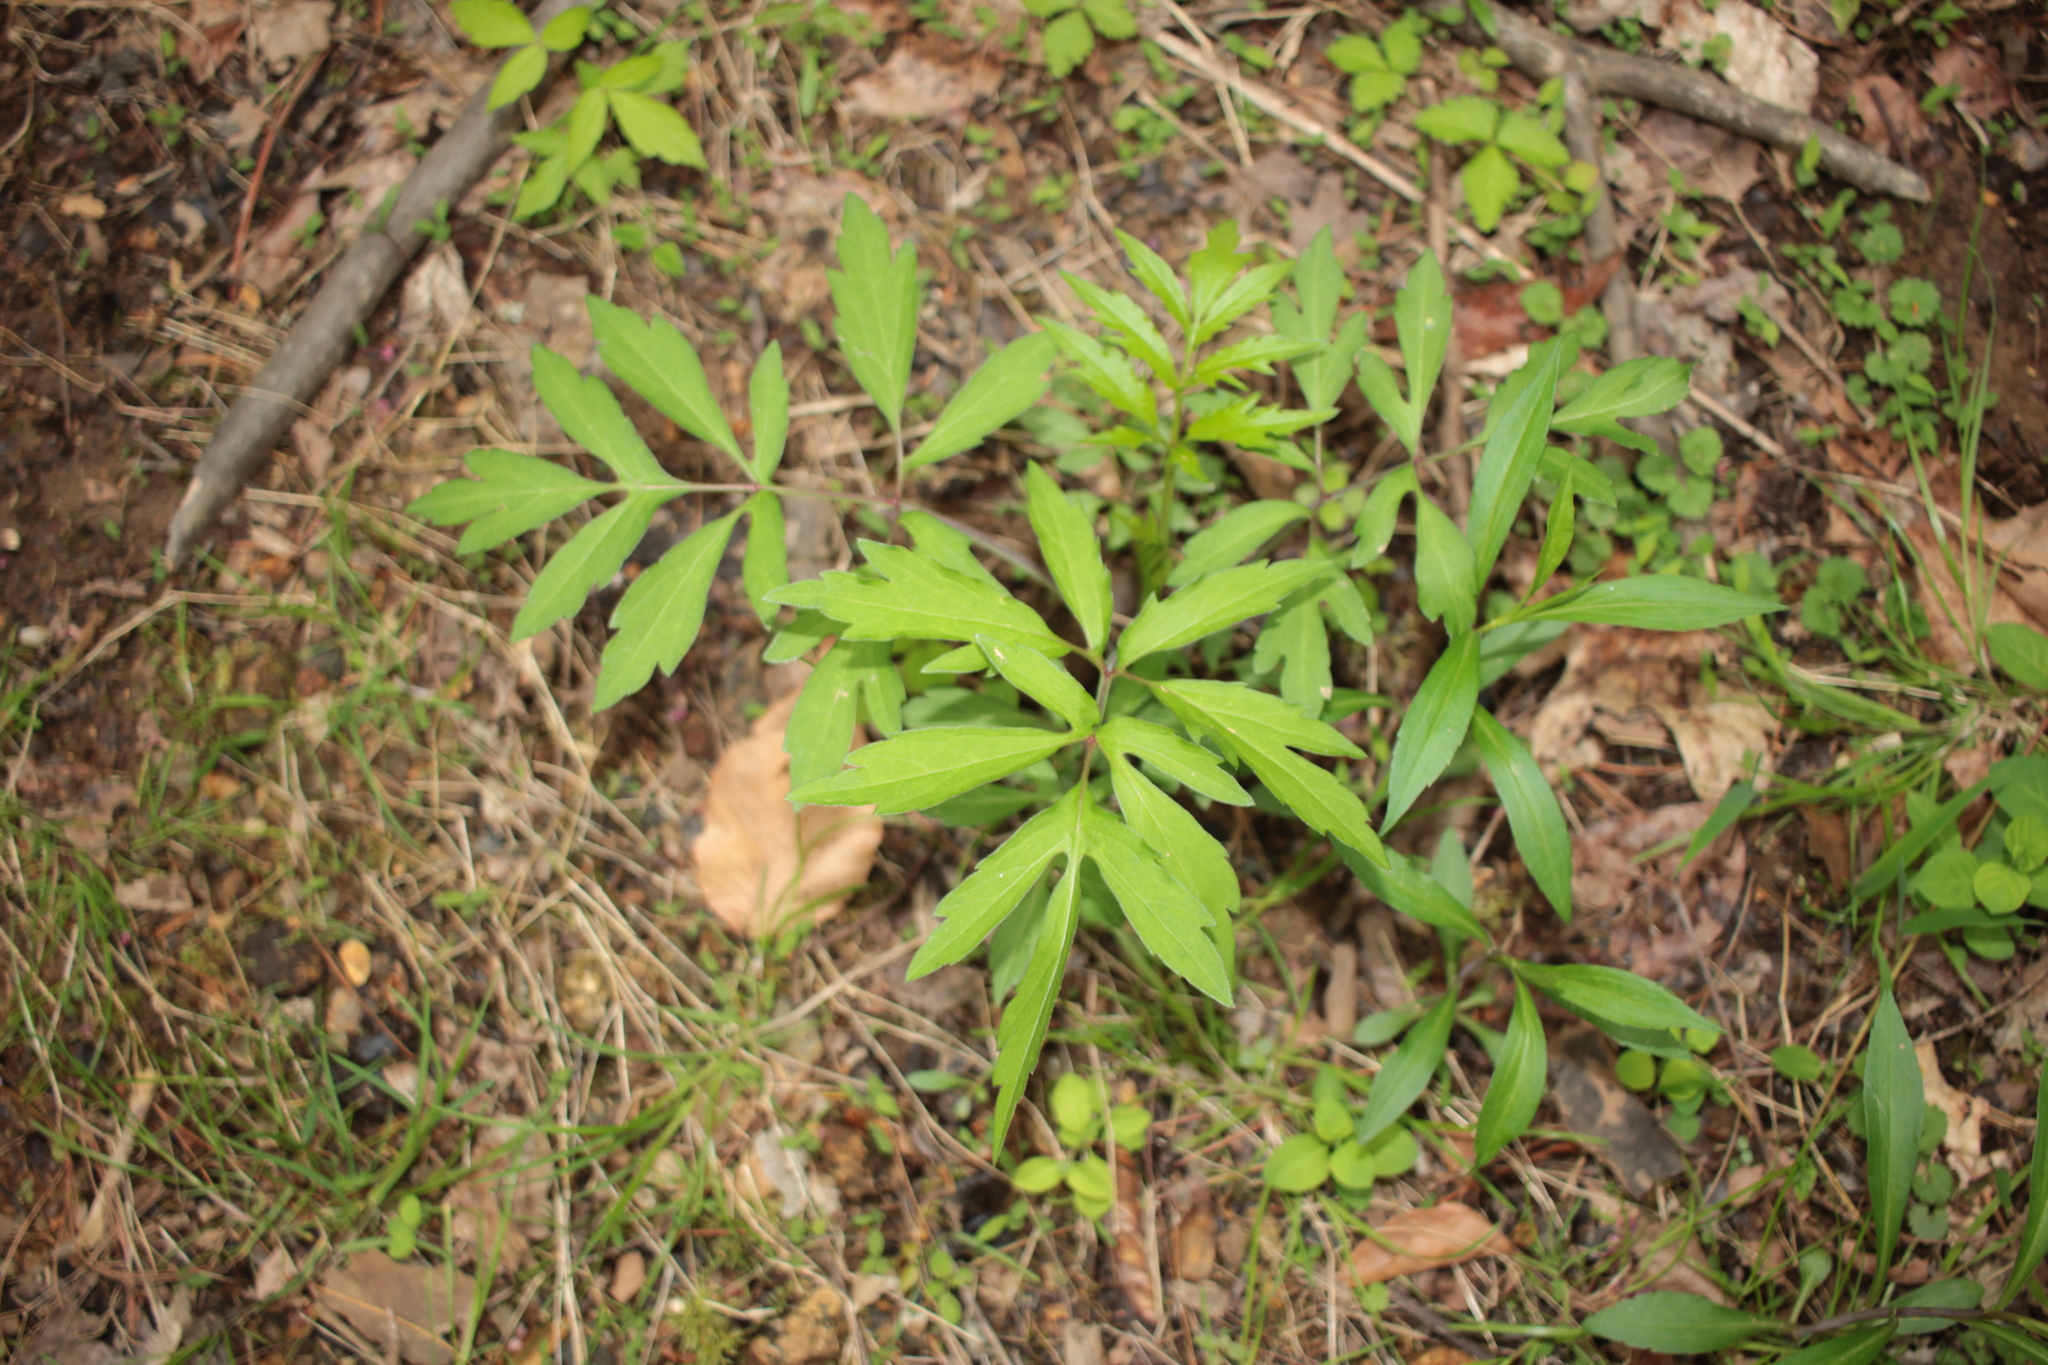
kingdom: Plantae
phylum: Tracheophyta
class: Magnoliopsida
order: Asterales
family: Asteraceae
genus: Rudbeckia
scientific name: Rudbeckia laciniata
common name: Coneflower
